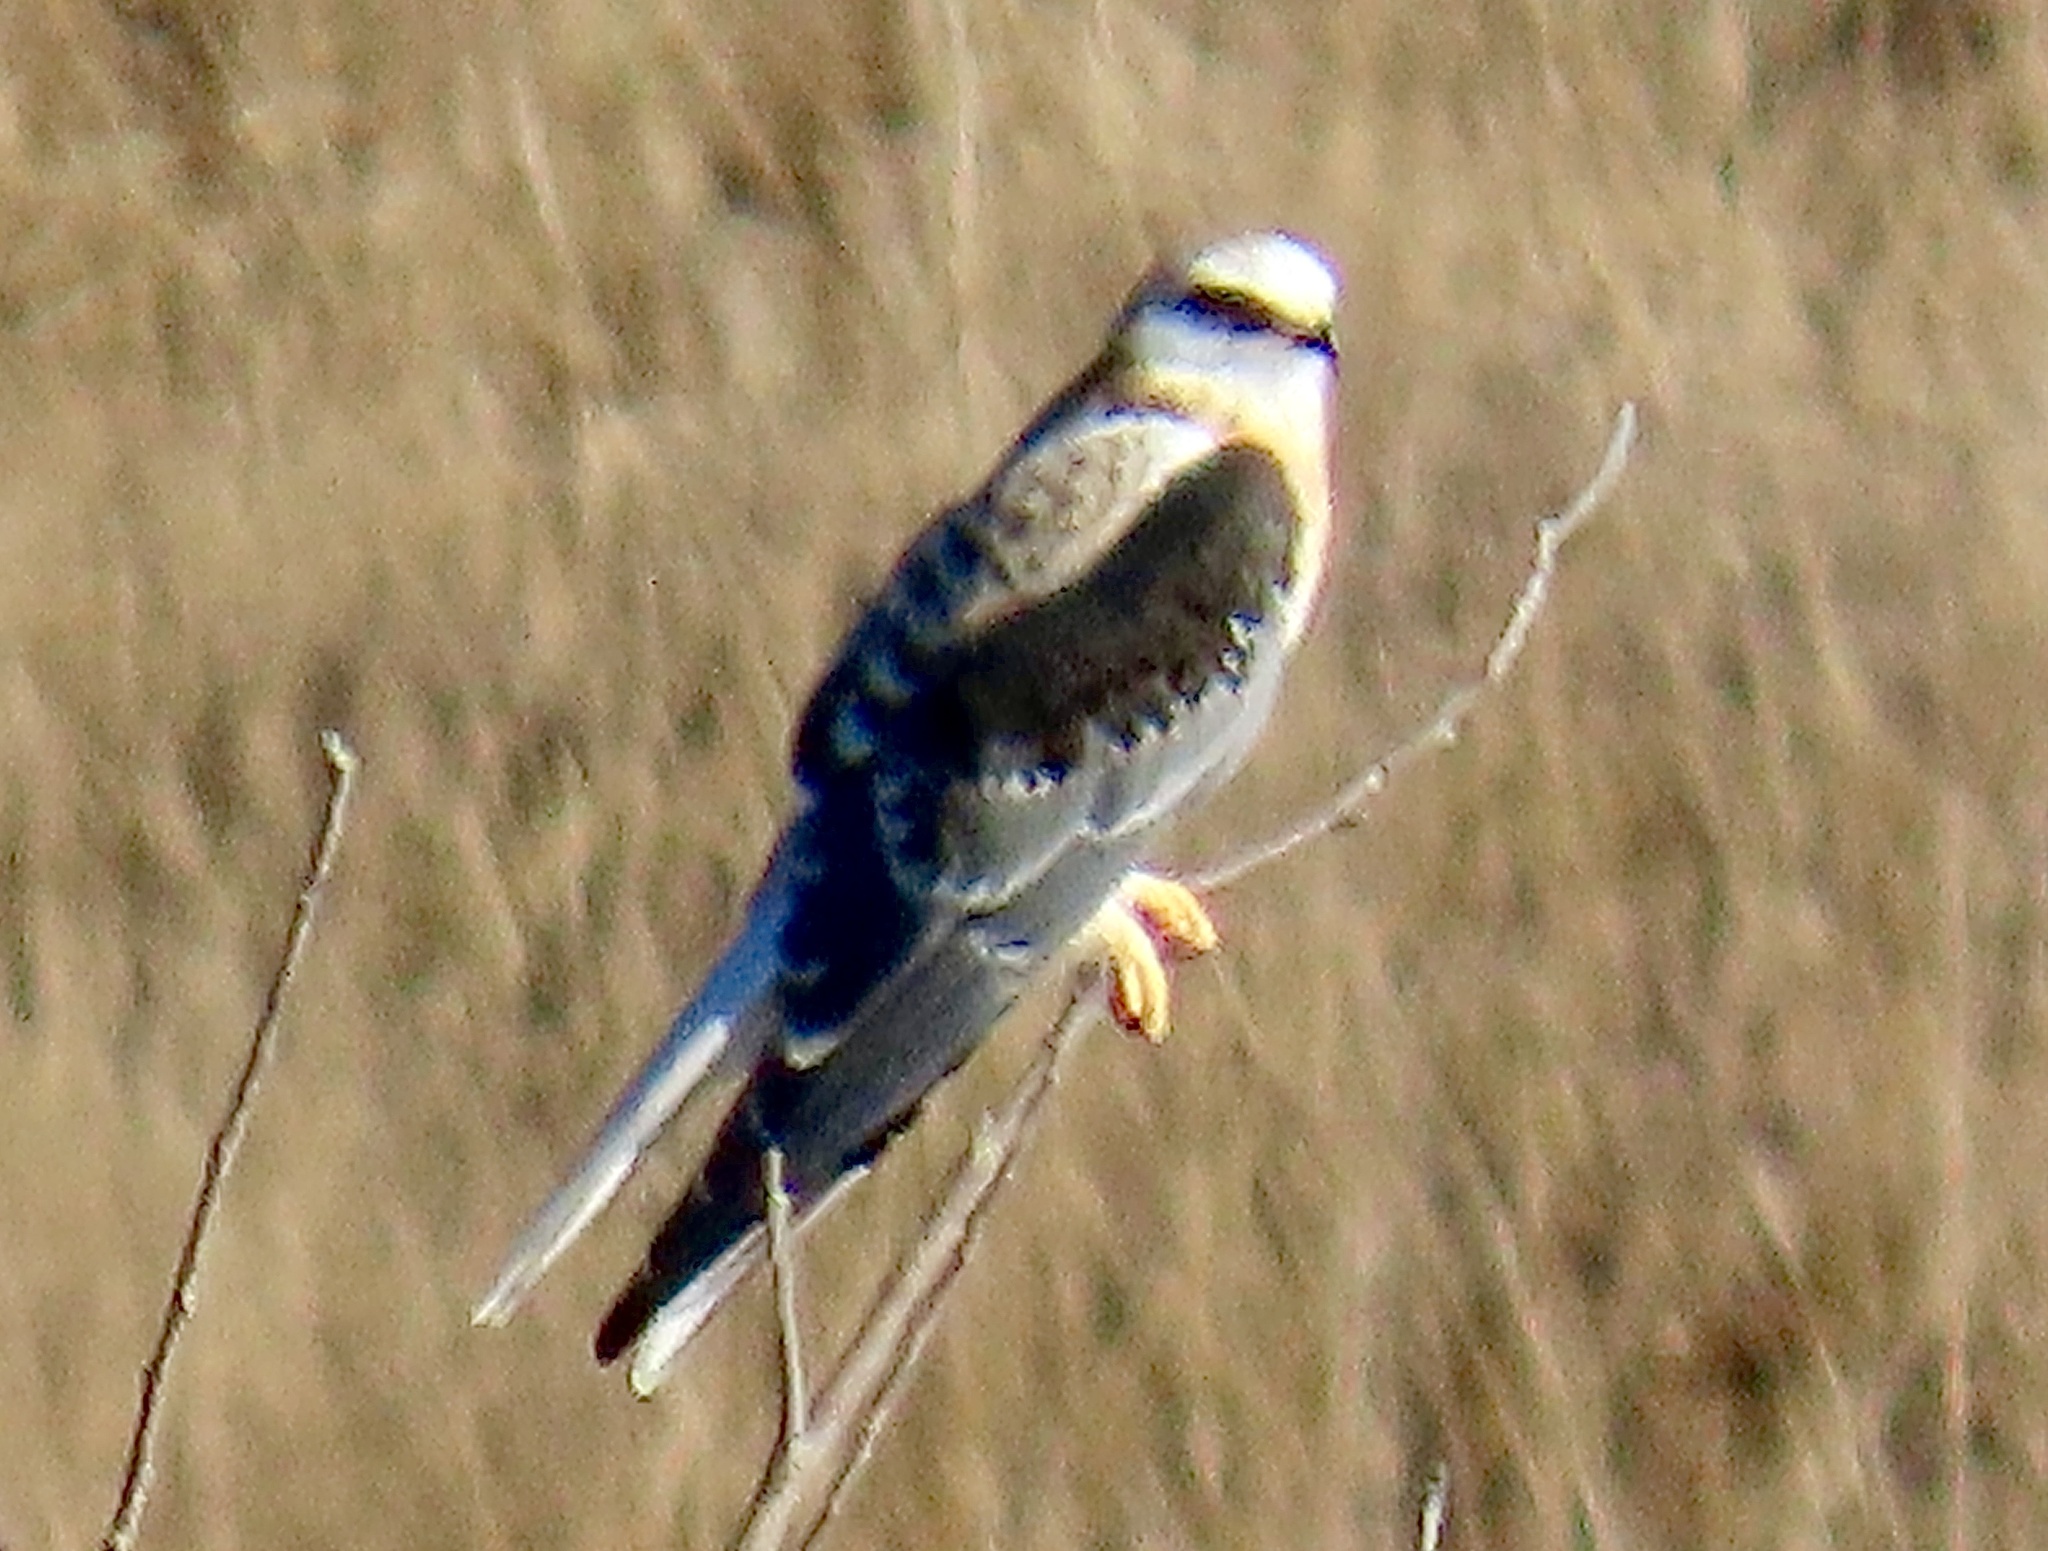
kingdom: Animalia
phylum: Chordata
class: Aves
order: Accipitriformes
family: Accipitridae
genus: Elanus
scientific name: Elanus leucurus
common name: White-tailed kite
